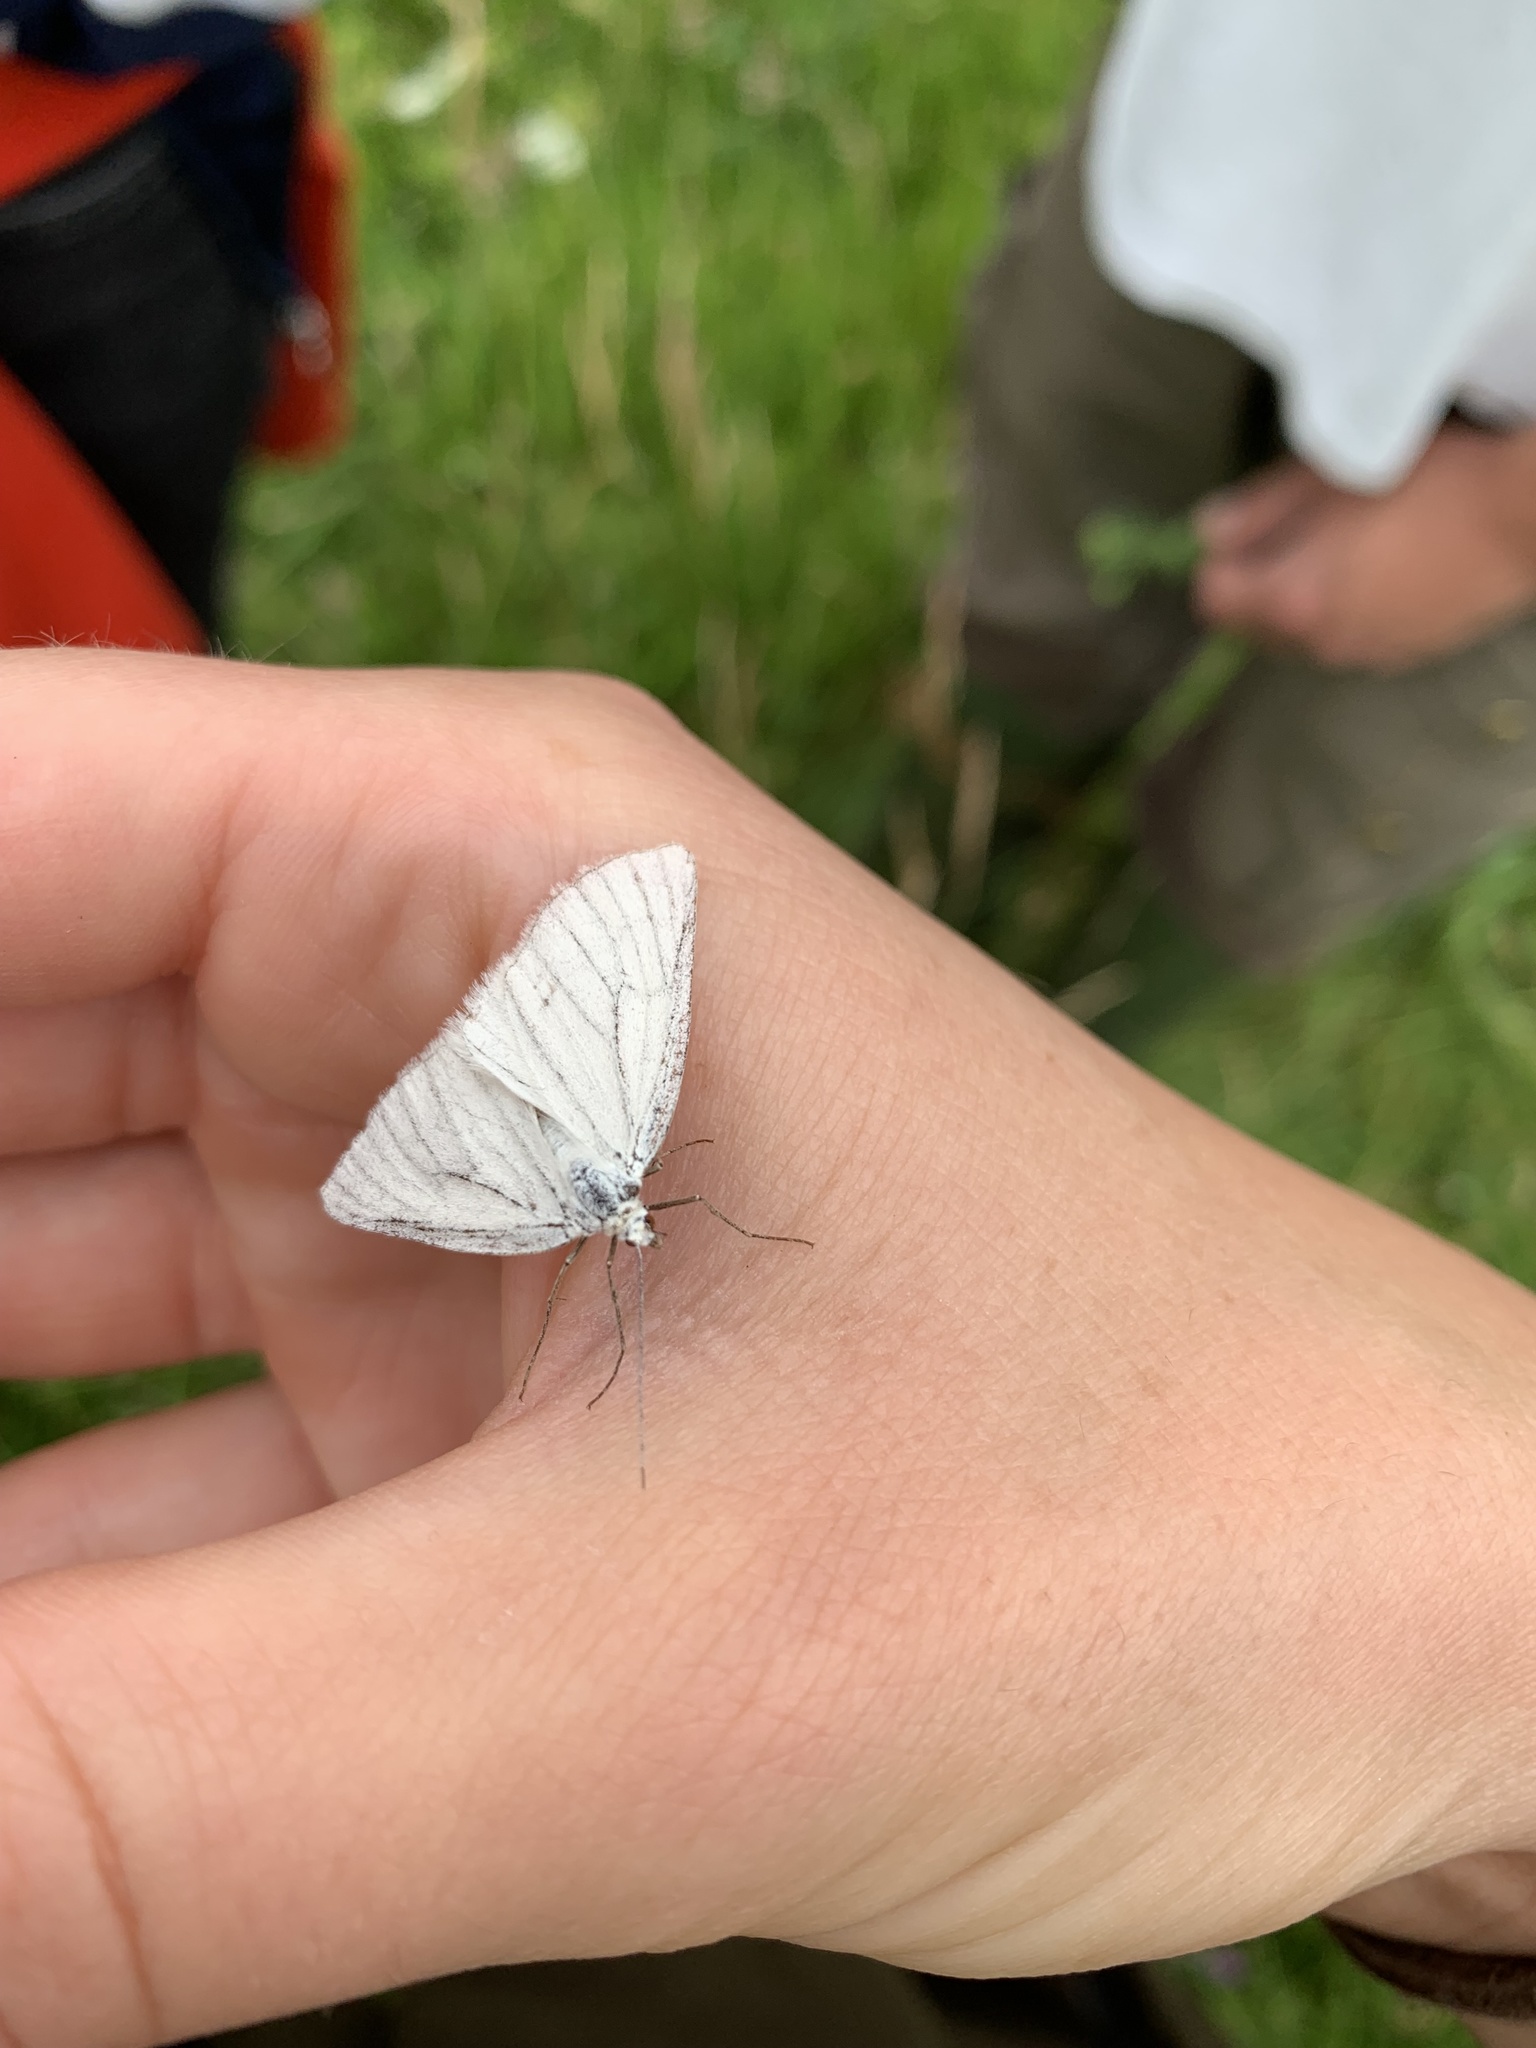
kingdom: Animalia
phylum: Arthropoda
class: Insecta
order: Lepidoptera
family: Geometridae
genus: Siona
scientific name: Siona lineata
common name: Black-veined moth
